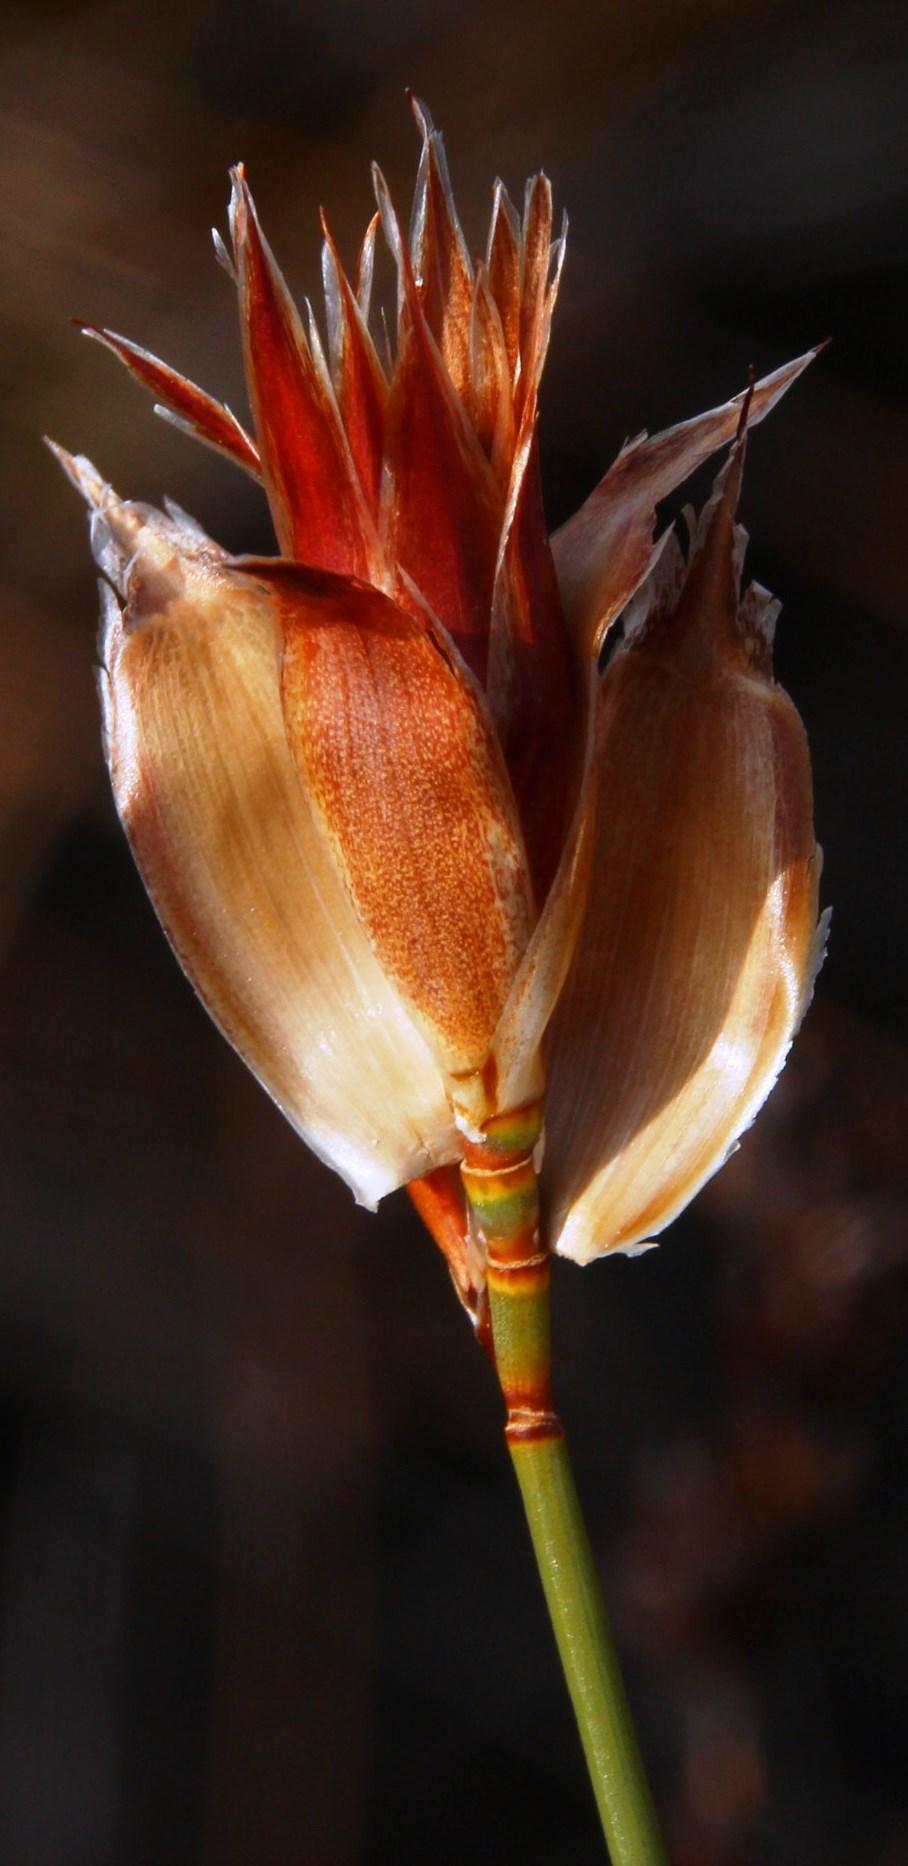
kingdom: Plantae
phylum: Tracheophyta
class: Liliopsida
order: Poales
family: Restionaceae
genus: Willdenowia
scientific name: Willdenowia incurvata
